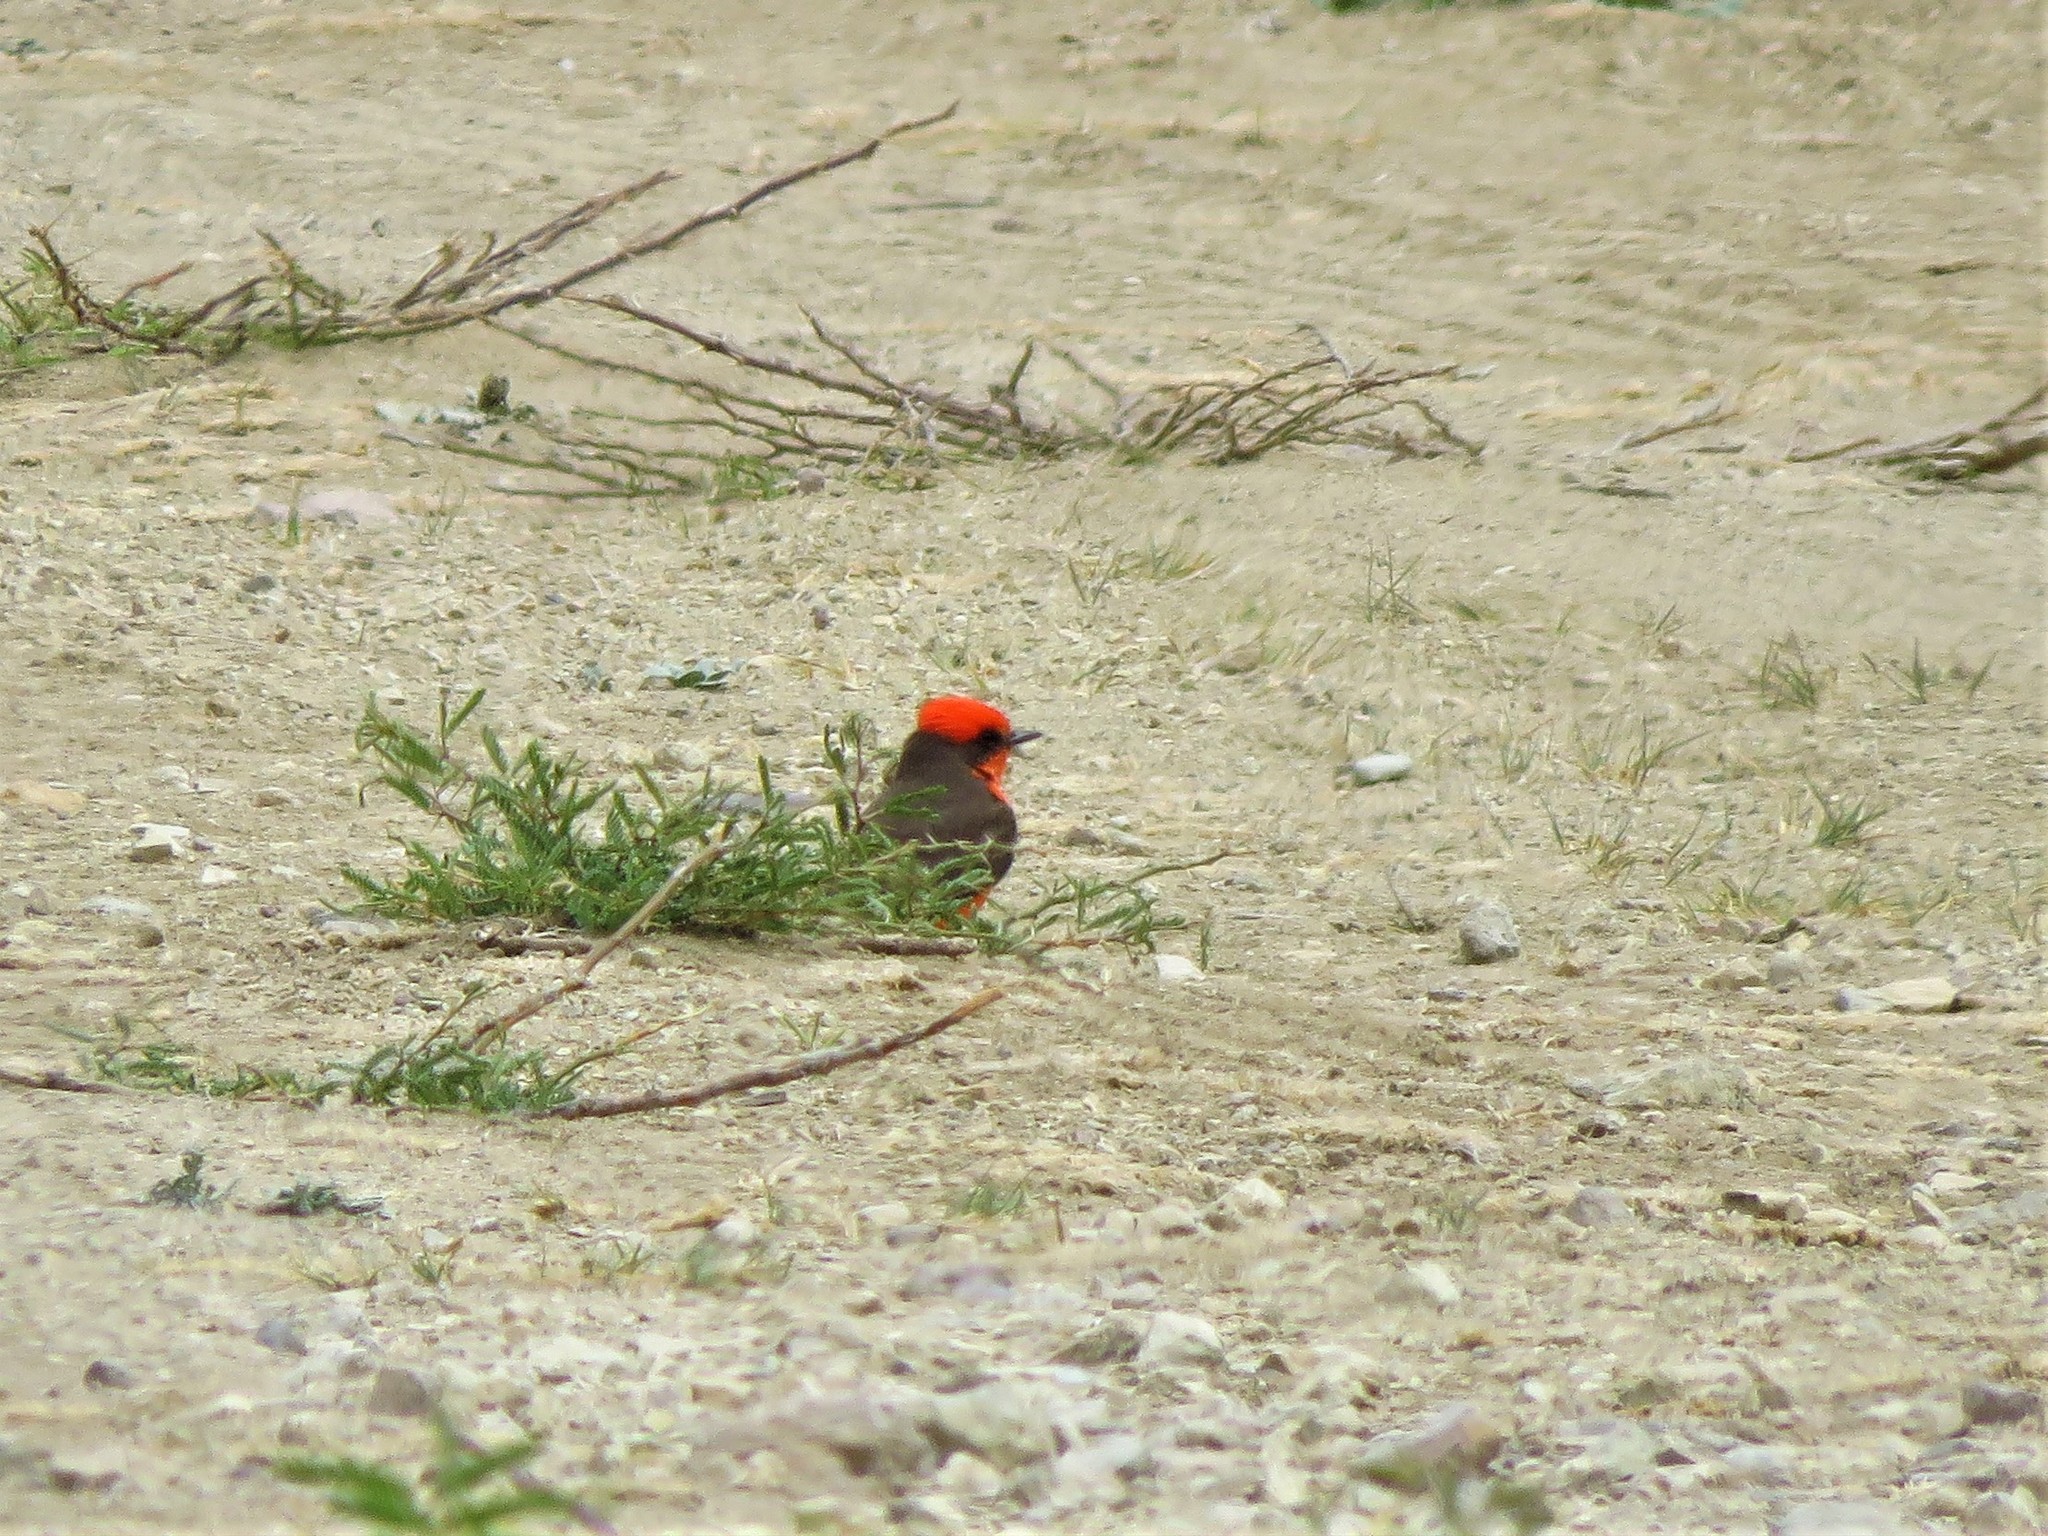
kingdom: Animalia
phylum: Chordata
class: Aves
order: Passeriformes
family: Tyrannidae
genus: Pyrocephalus
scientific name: Pyrocephalus rubinus
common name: Vermilion flycatcher
